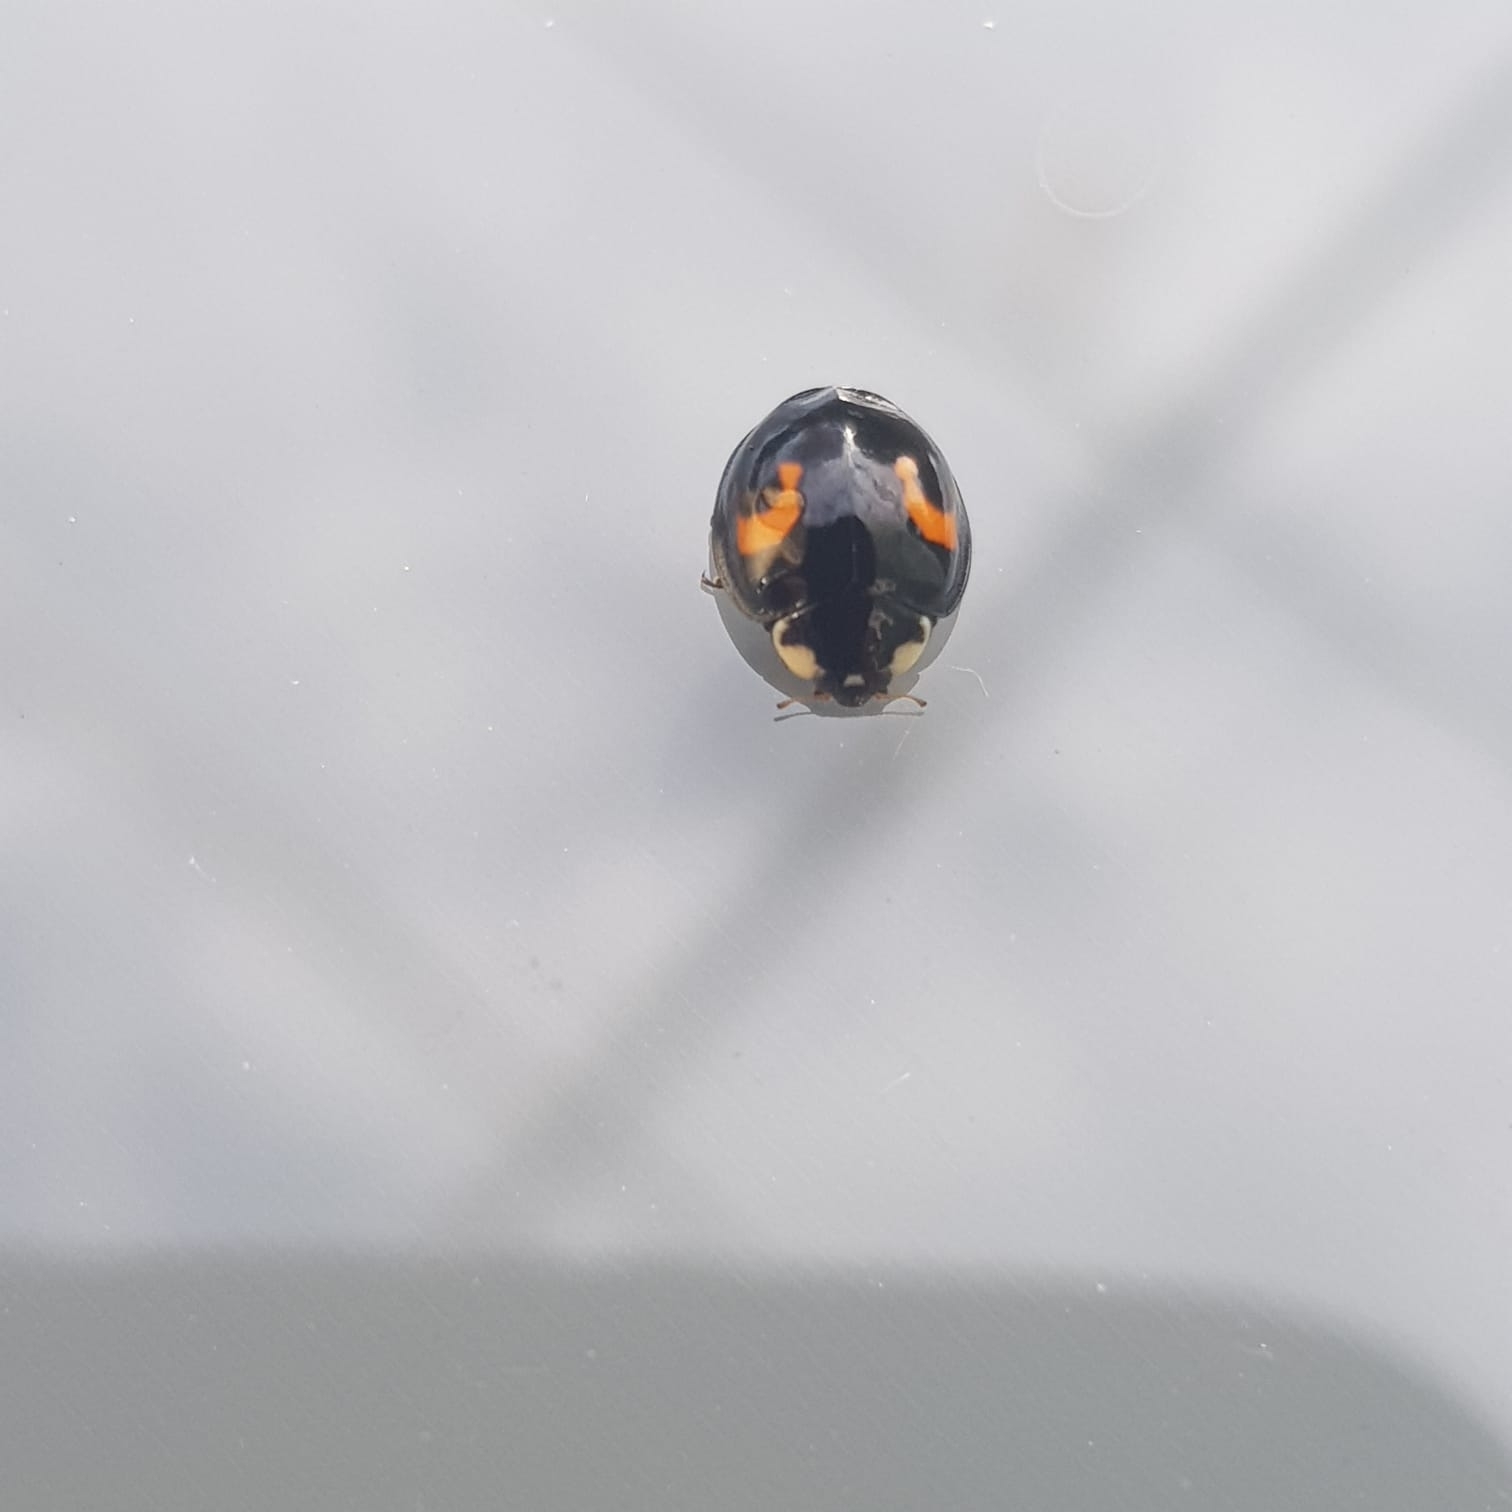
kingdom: Animalia
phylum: Arthropoda
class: Insecta
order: Coleoptera
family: Coccinellidae
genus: Harmonia
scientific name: Harmonia axyridis
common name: Harlequin ladybird
